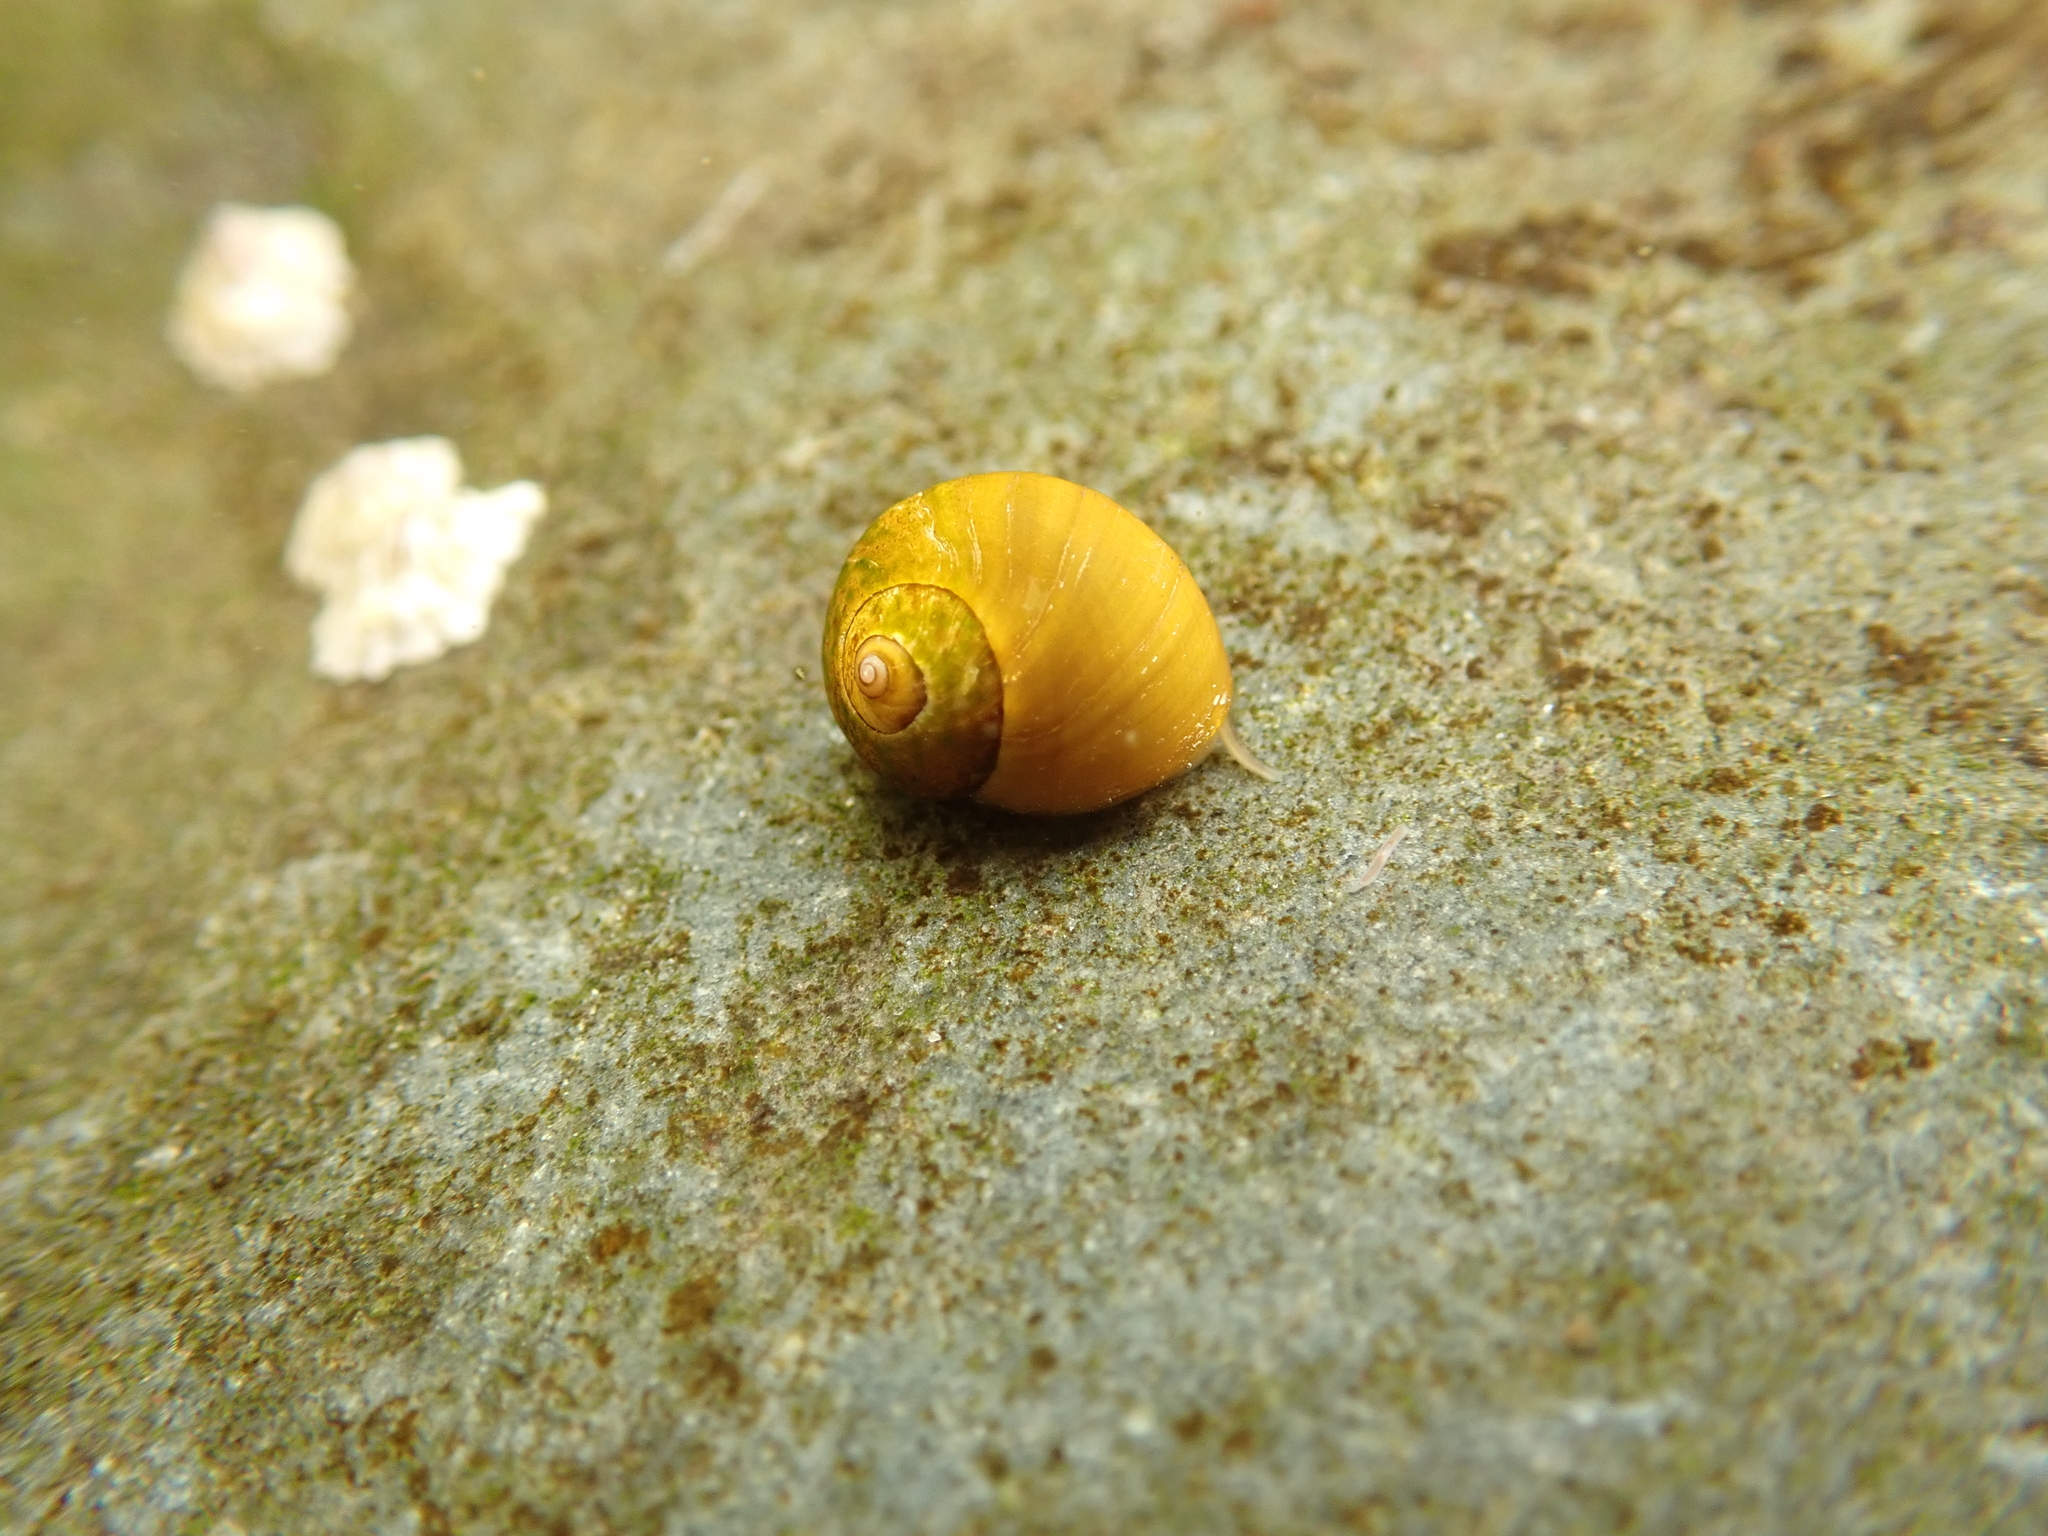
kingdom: Animalia
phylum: Mollusca
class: Gastropoda
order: Littorinimorpha
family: Littorinidae
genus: Littorina
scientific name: Littorina obtusata
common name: Flat periwinkle
